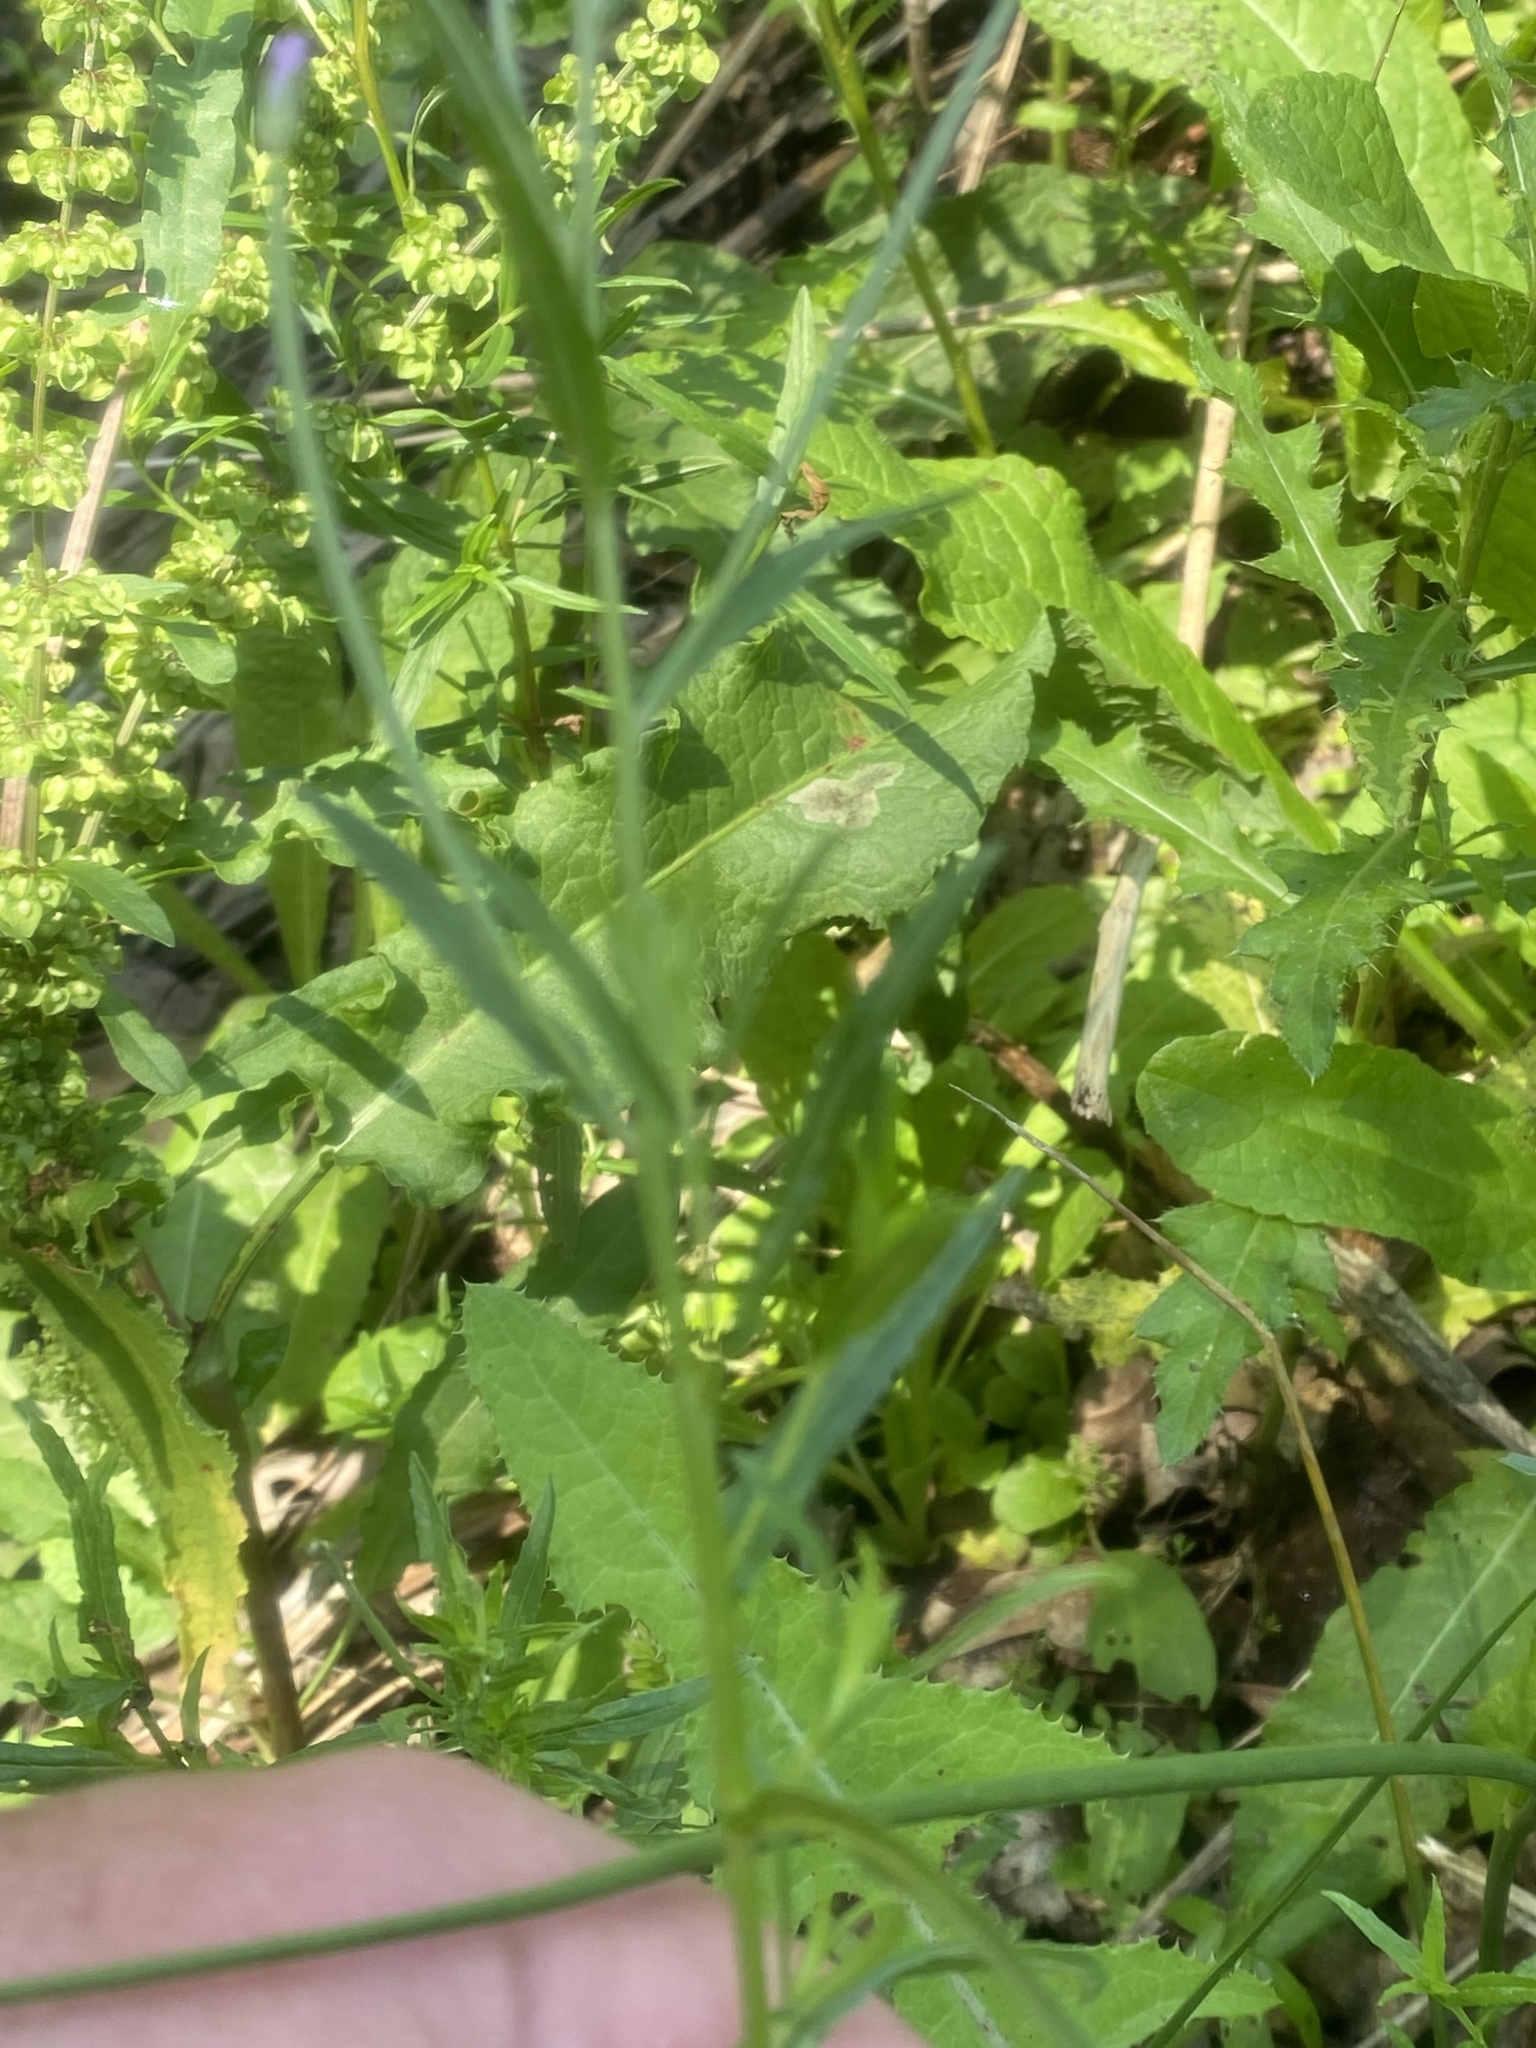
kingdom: Plantae
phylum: Tracheophyta
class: Magnoliopsida
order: Myrtales
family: Onagraceae
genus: Epilobium
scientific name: Epilobium coloratum
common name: Bronze willowherb
